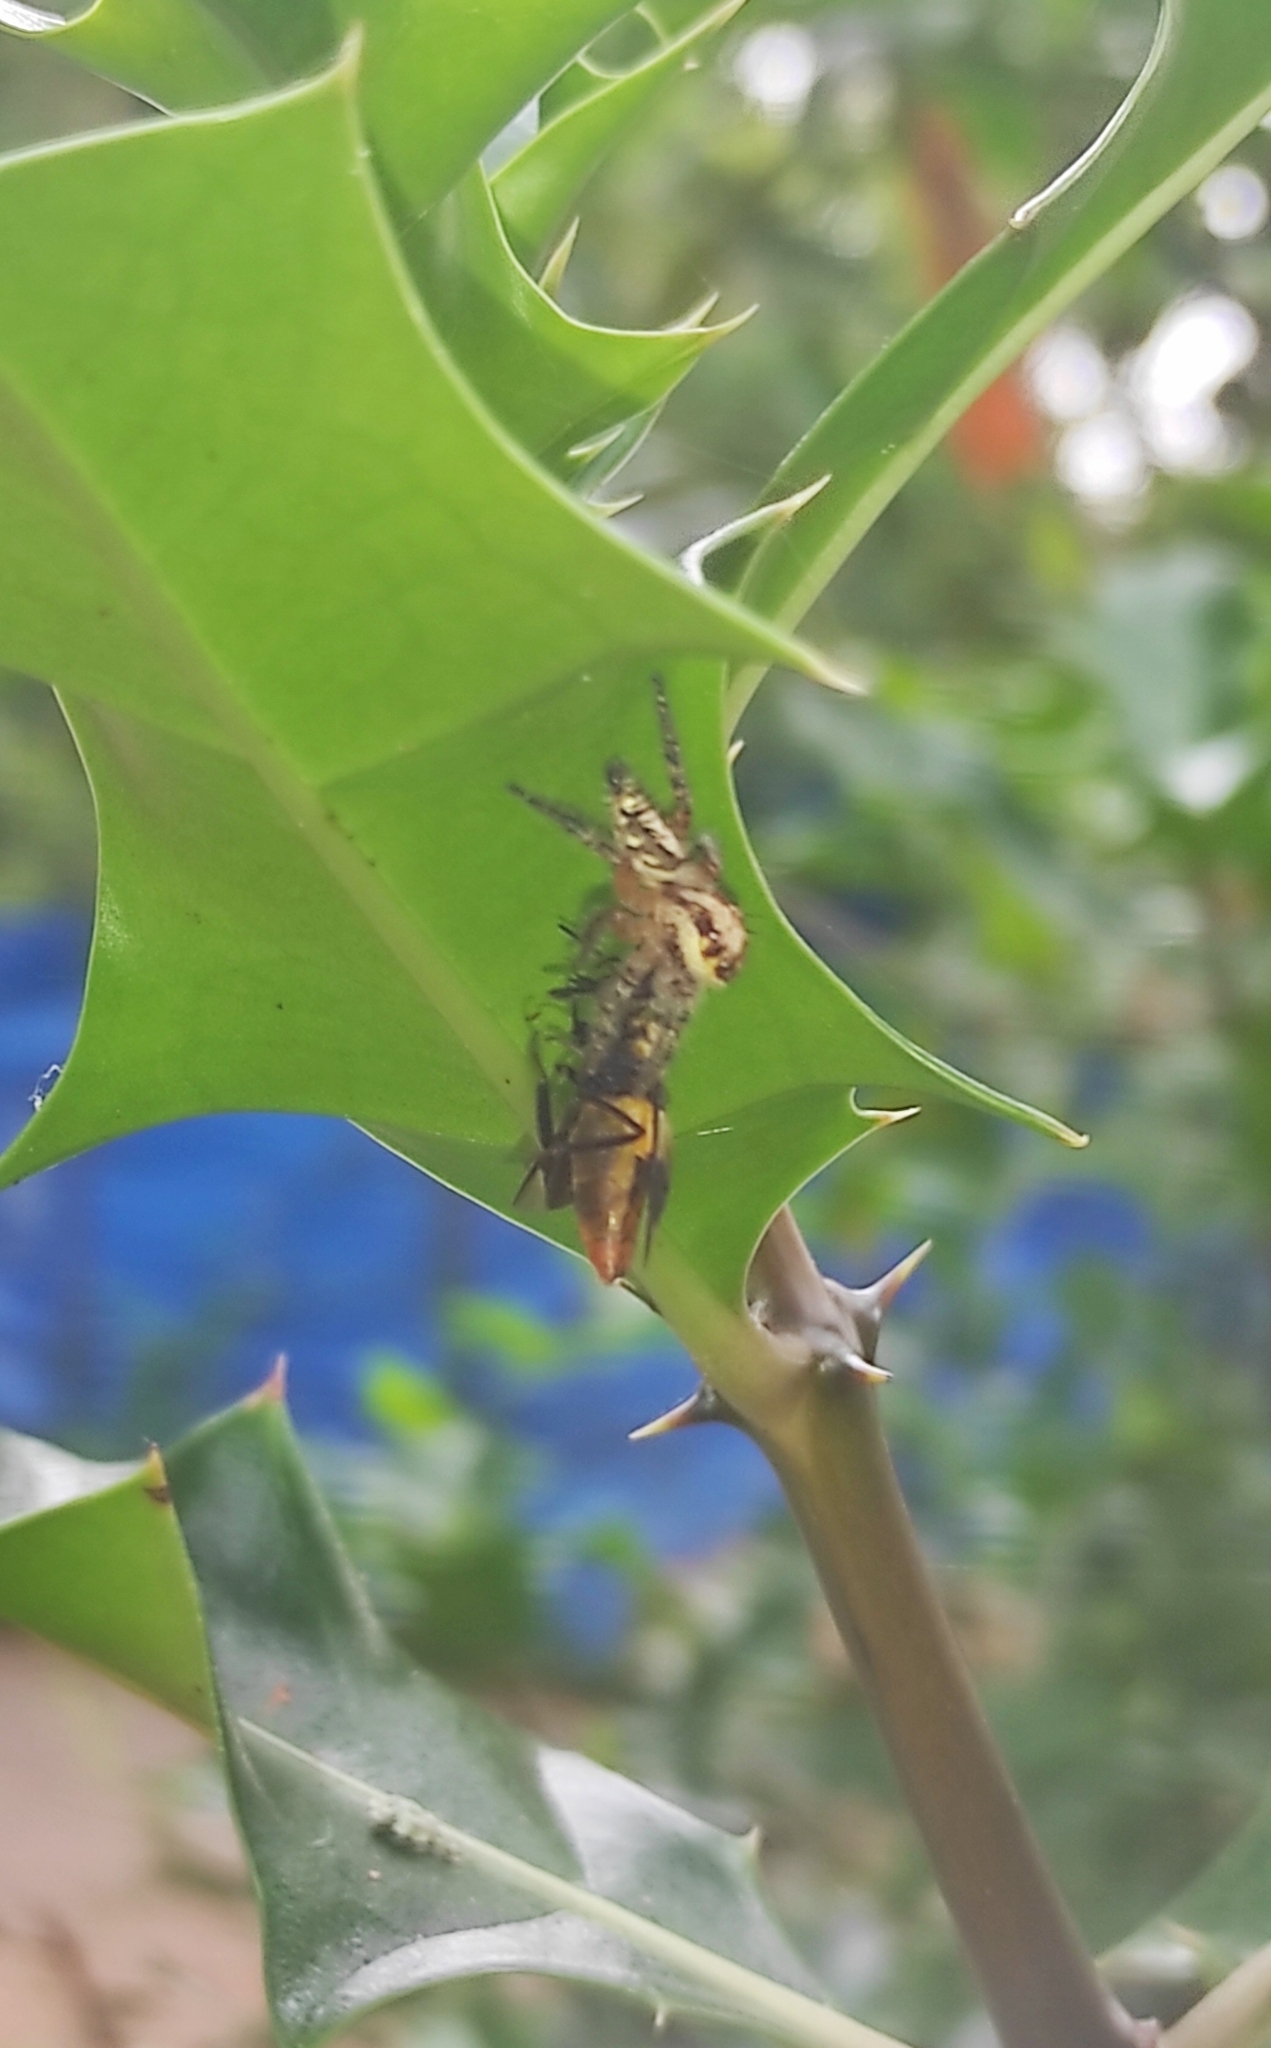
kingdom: Animalia
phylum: Arthropoda
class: Arachnida
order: Araneae
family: Salticidae
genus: Hyllus
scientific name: Hyllus semicupreus
